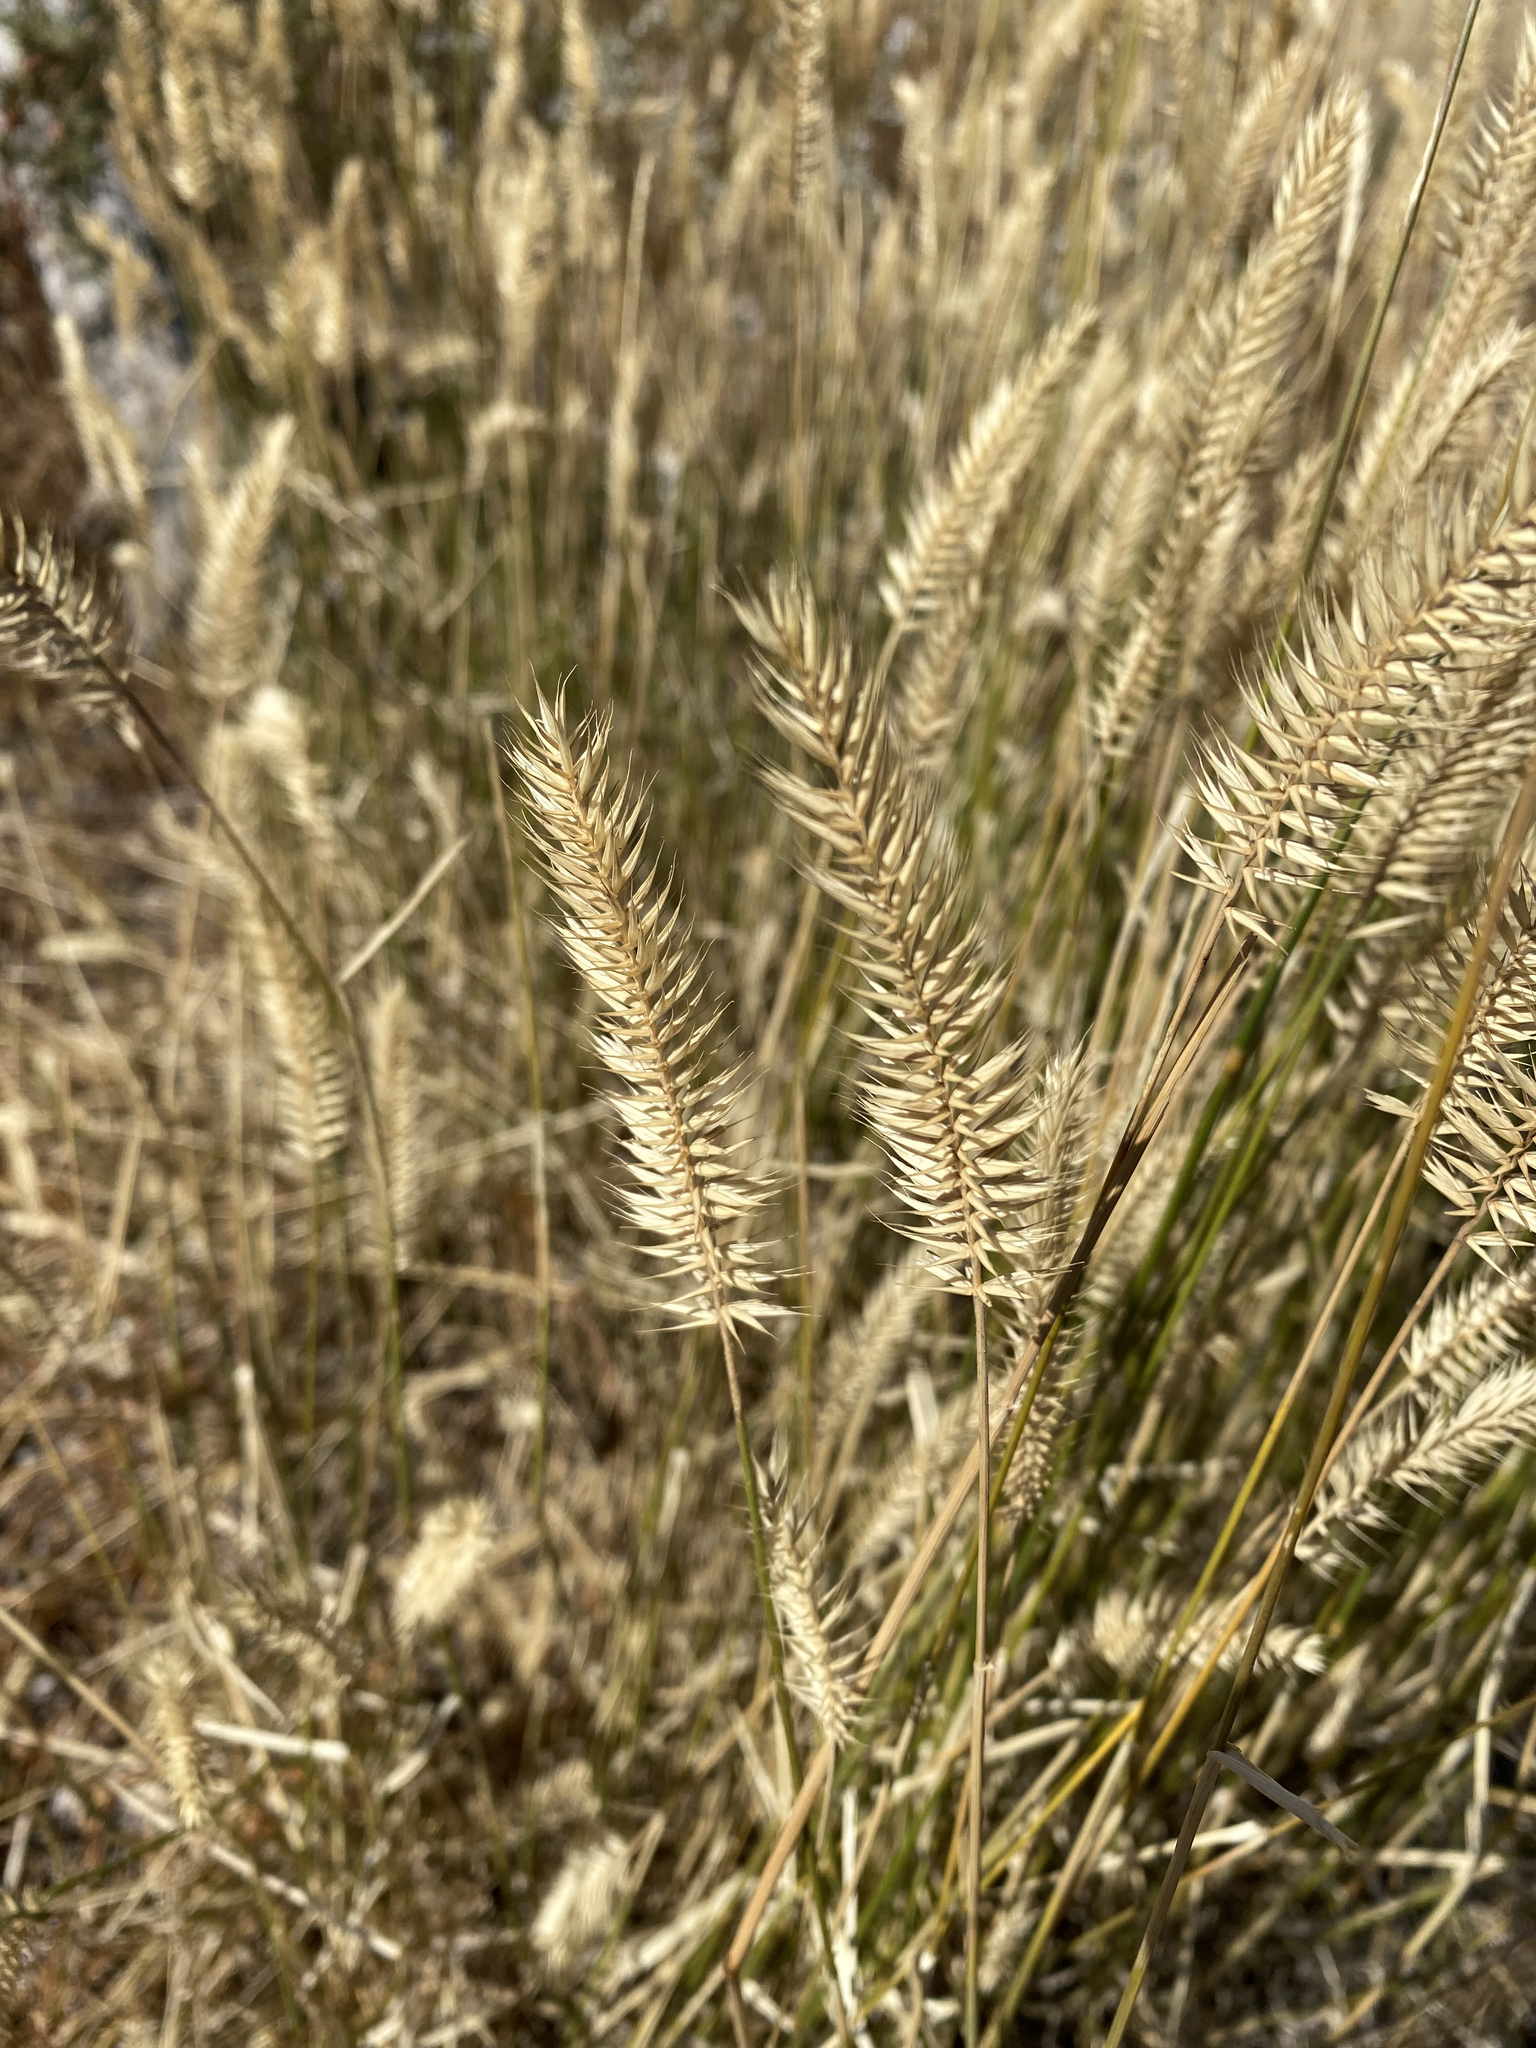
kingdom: Plantae
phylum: Tracheophyta
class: Liliopsida
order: Poales
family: Poaceae
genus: Agropyron
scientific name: Agropyron cristatum
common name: Crested wheatgrass
